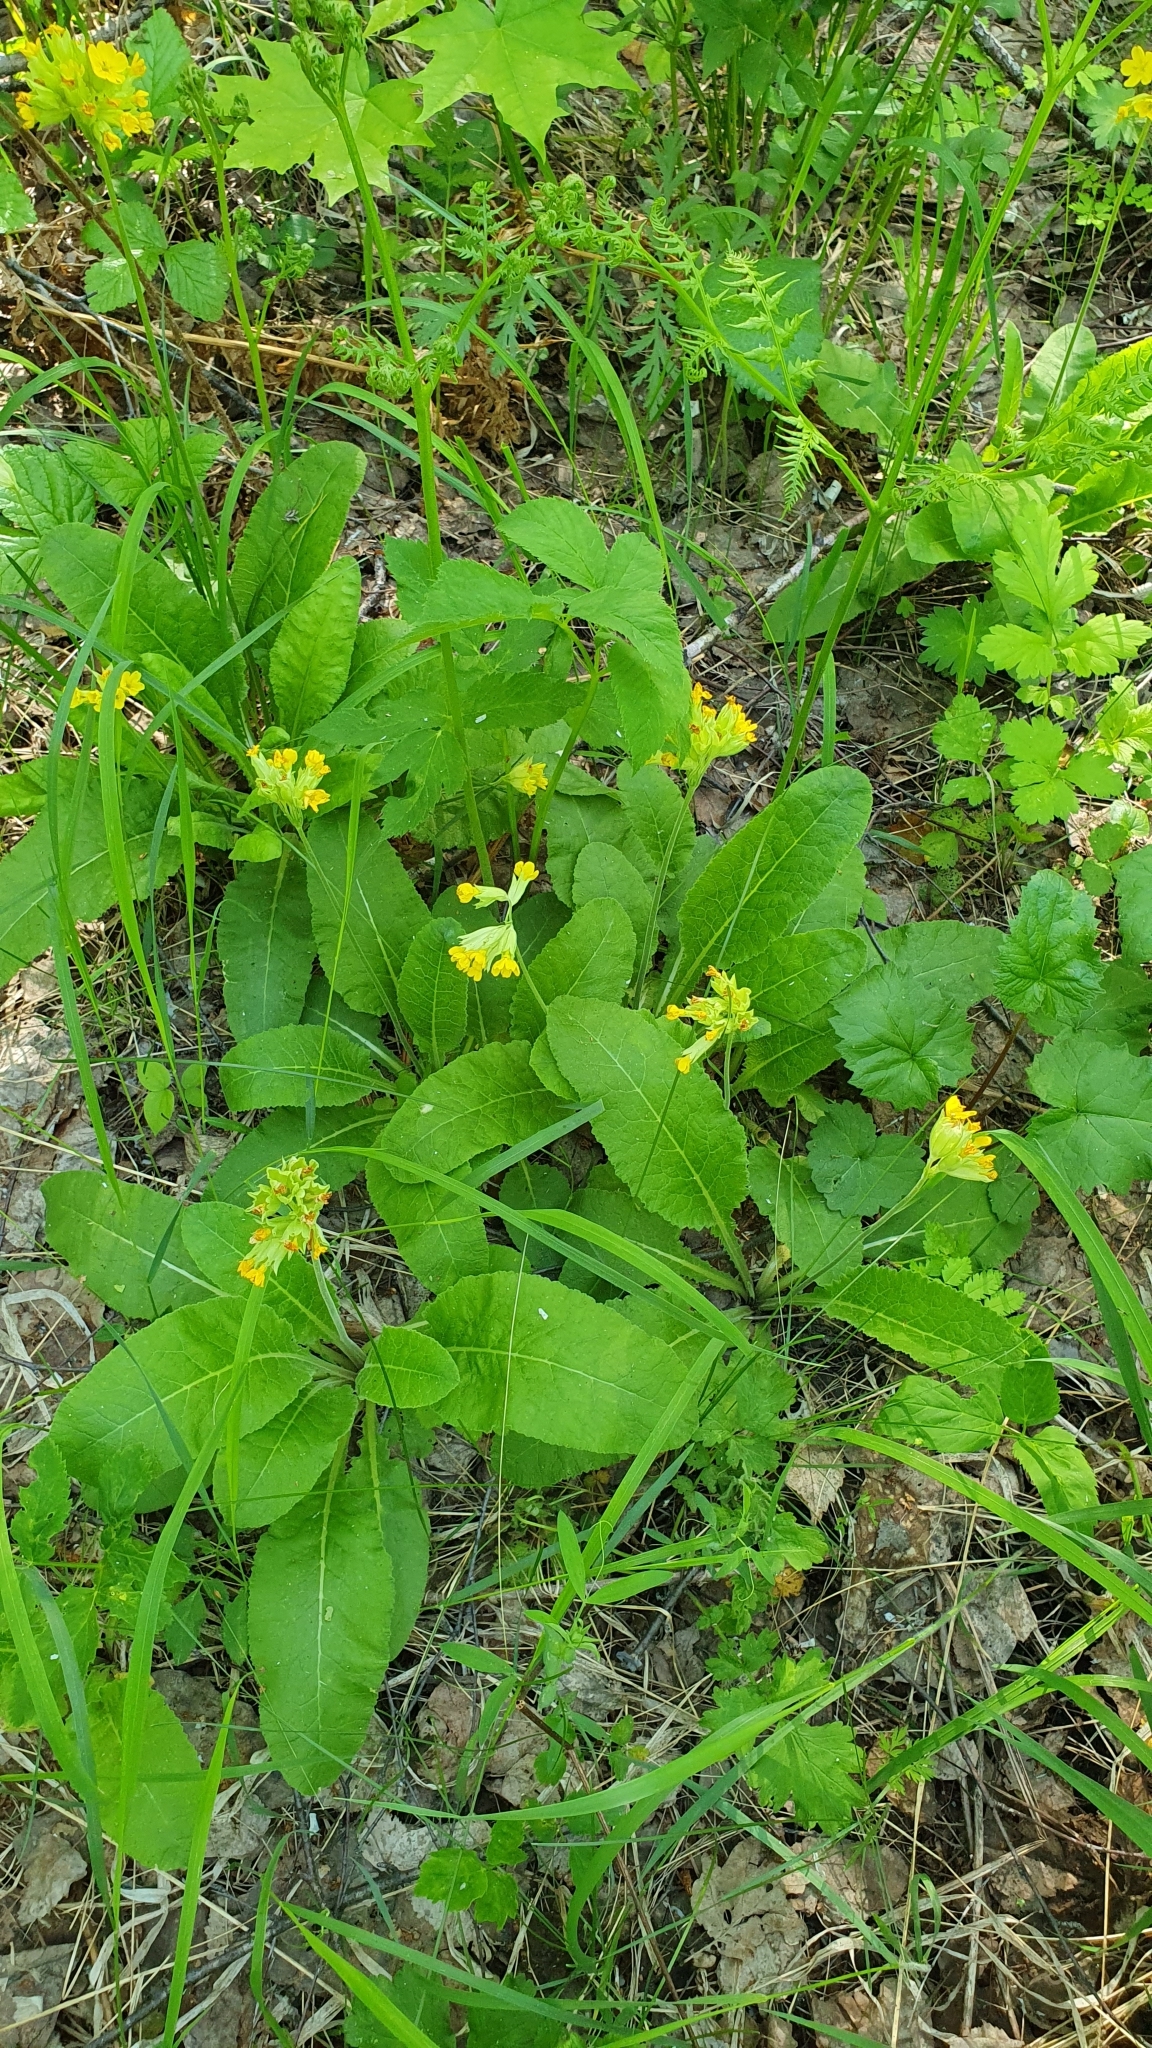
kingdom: Plantae
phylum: Tracheophyta
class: Magnoliopsida
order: Ericales
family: Primulaceae
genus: Primula
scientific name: Primula veris
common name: Cowslip
